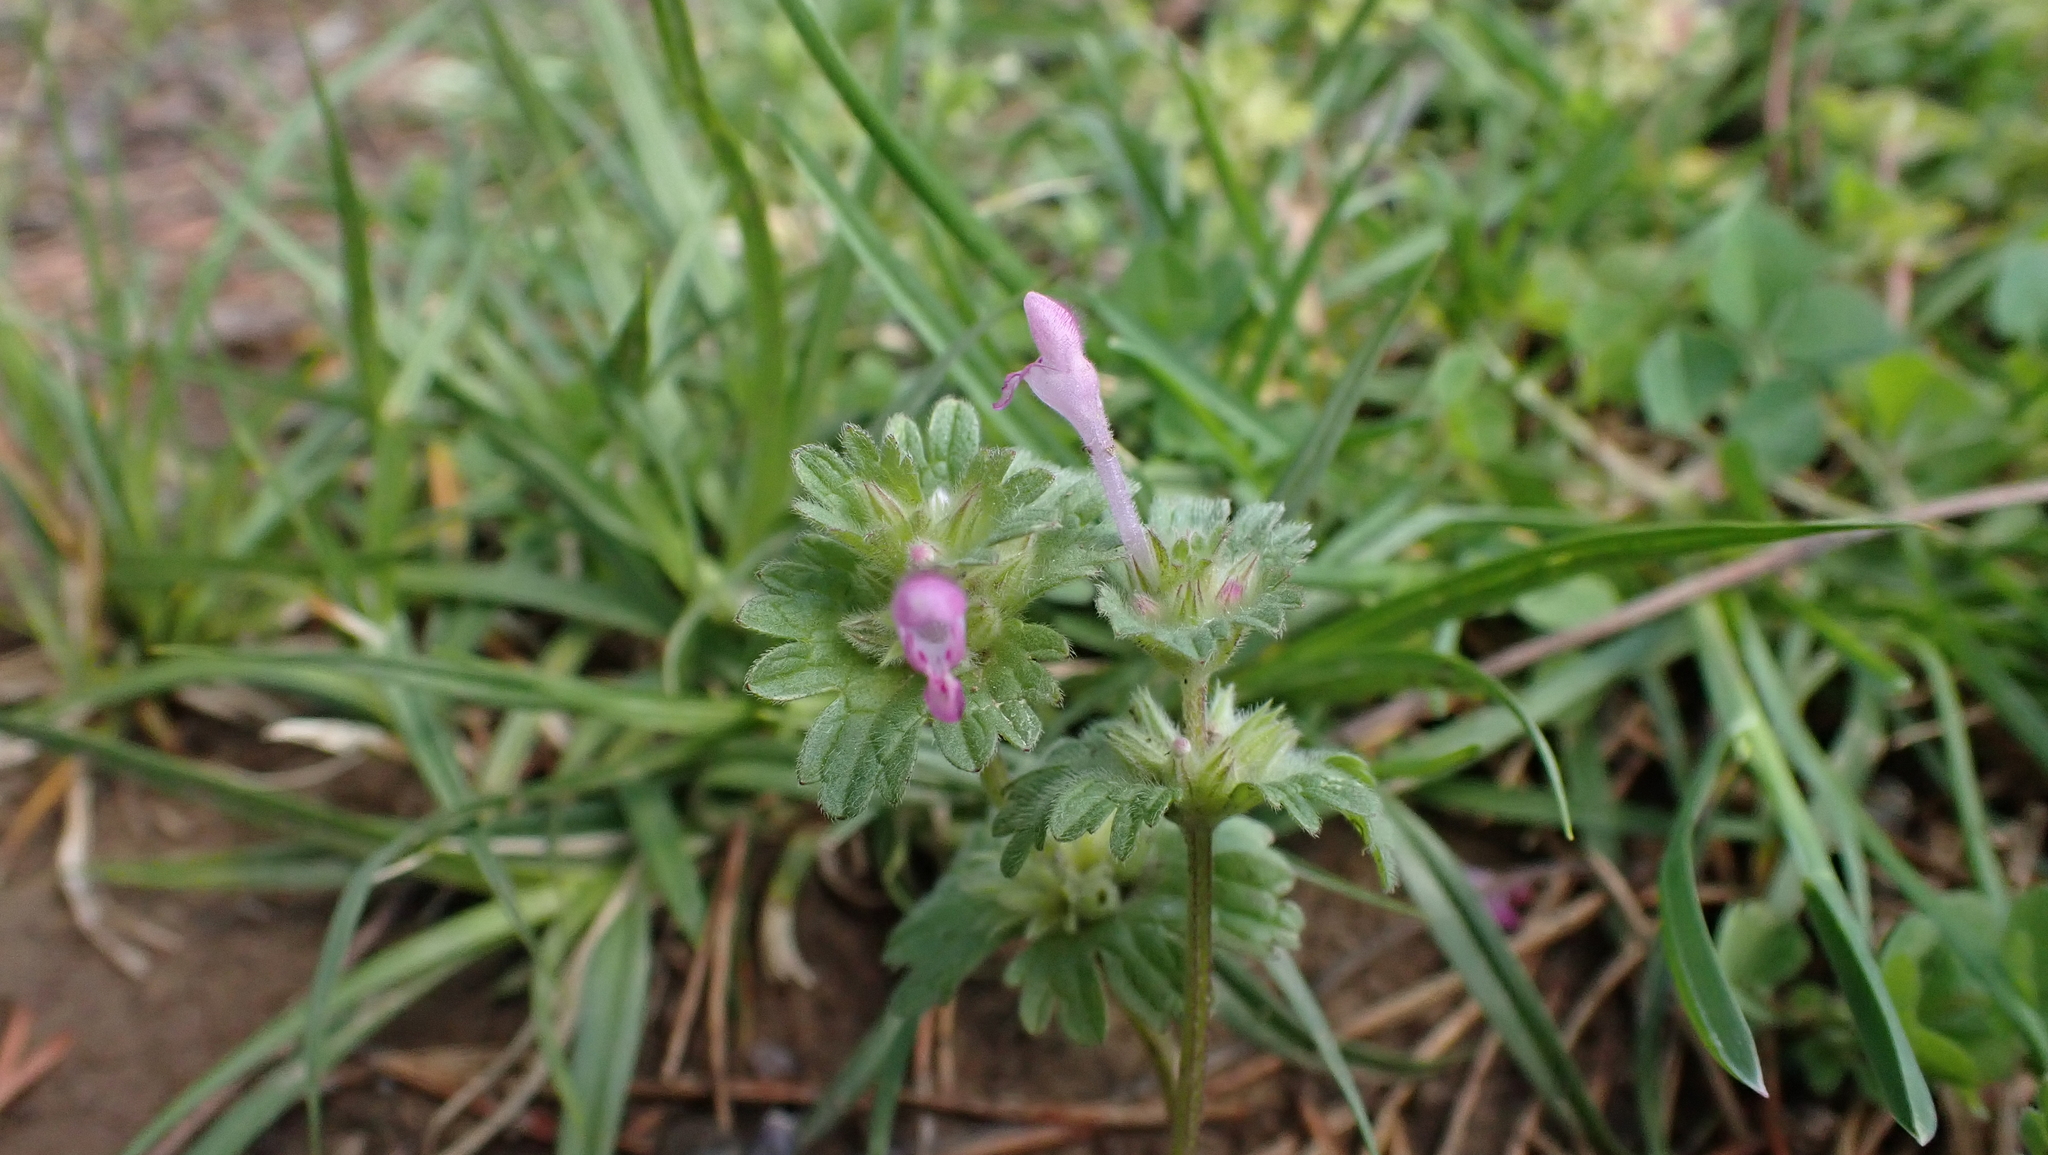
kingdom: Plantae
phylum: Tracheophyta
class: Magnoliopsida
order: Lamiales
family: Lamiaceae
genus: Lamium
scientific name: Lamium amplexicaule
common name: Henbit dead-nettle
